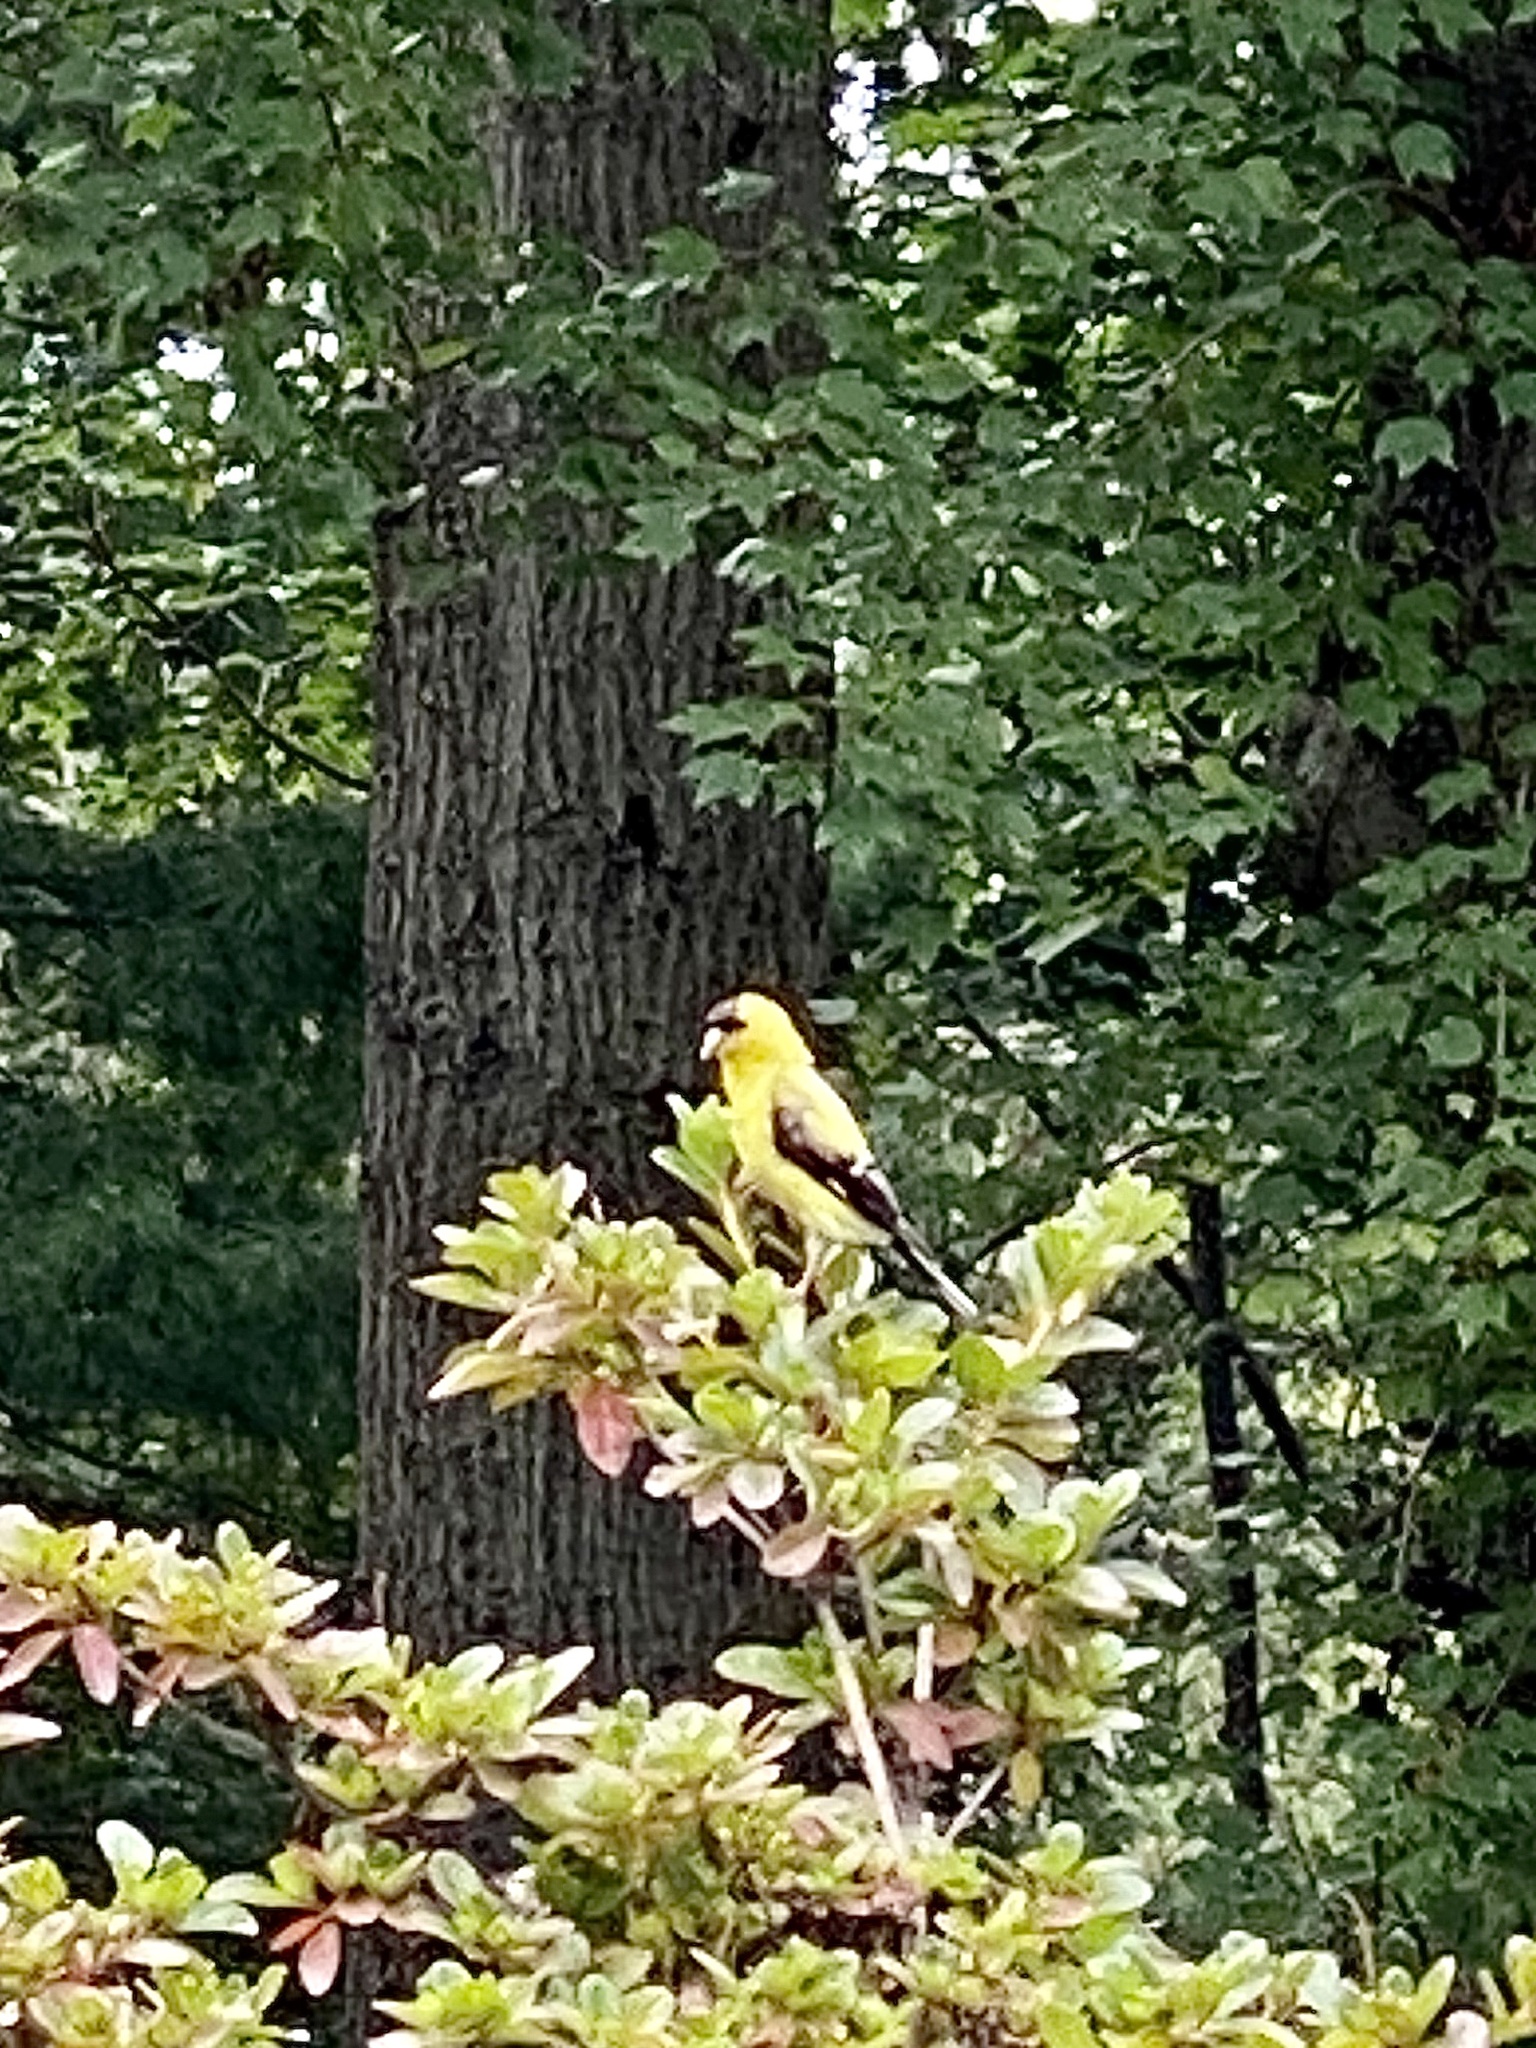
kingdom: Animalia
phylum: Chordata
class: Aves
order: Passeriformes
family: Fringillidae
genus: Spinus
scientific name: Spinus tristis
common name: American goldfinch
